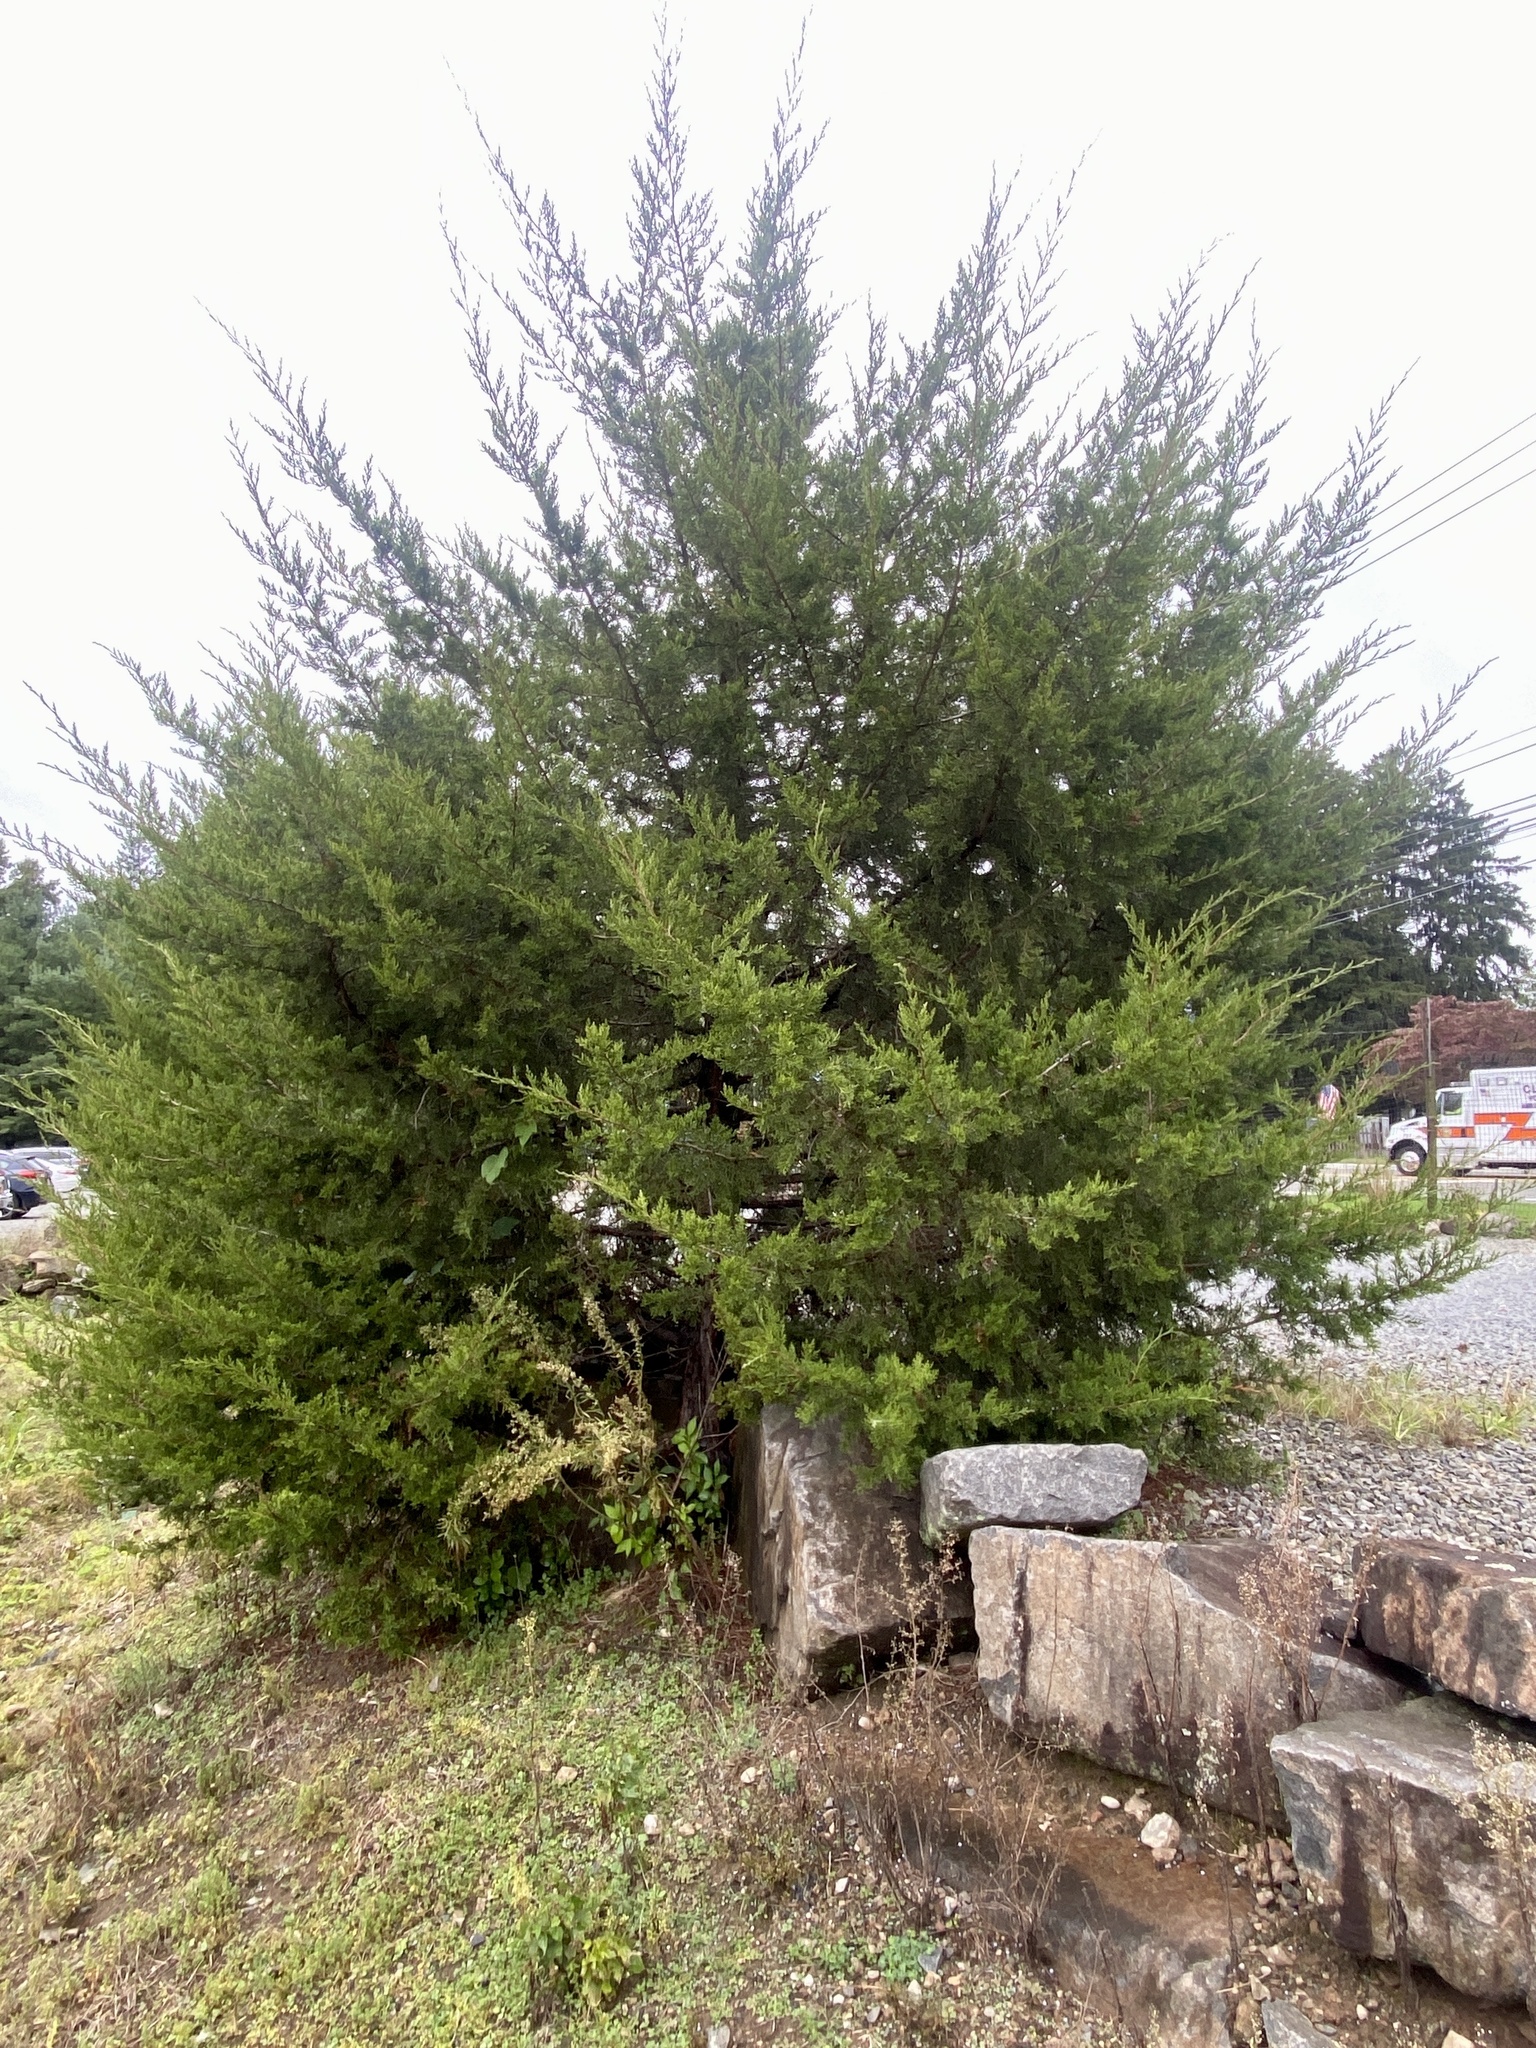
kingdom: Plantae
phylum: Tracheophyta
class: Pinopsida
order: Pinales
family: Cupressaceae
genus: Juniperus
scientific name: Juniperus virginiana
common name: Red juniper
